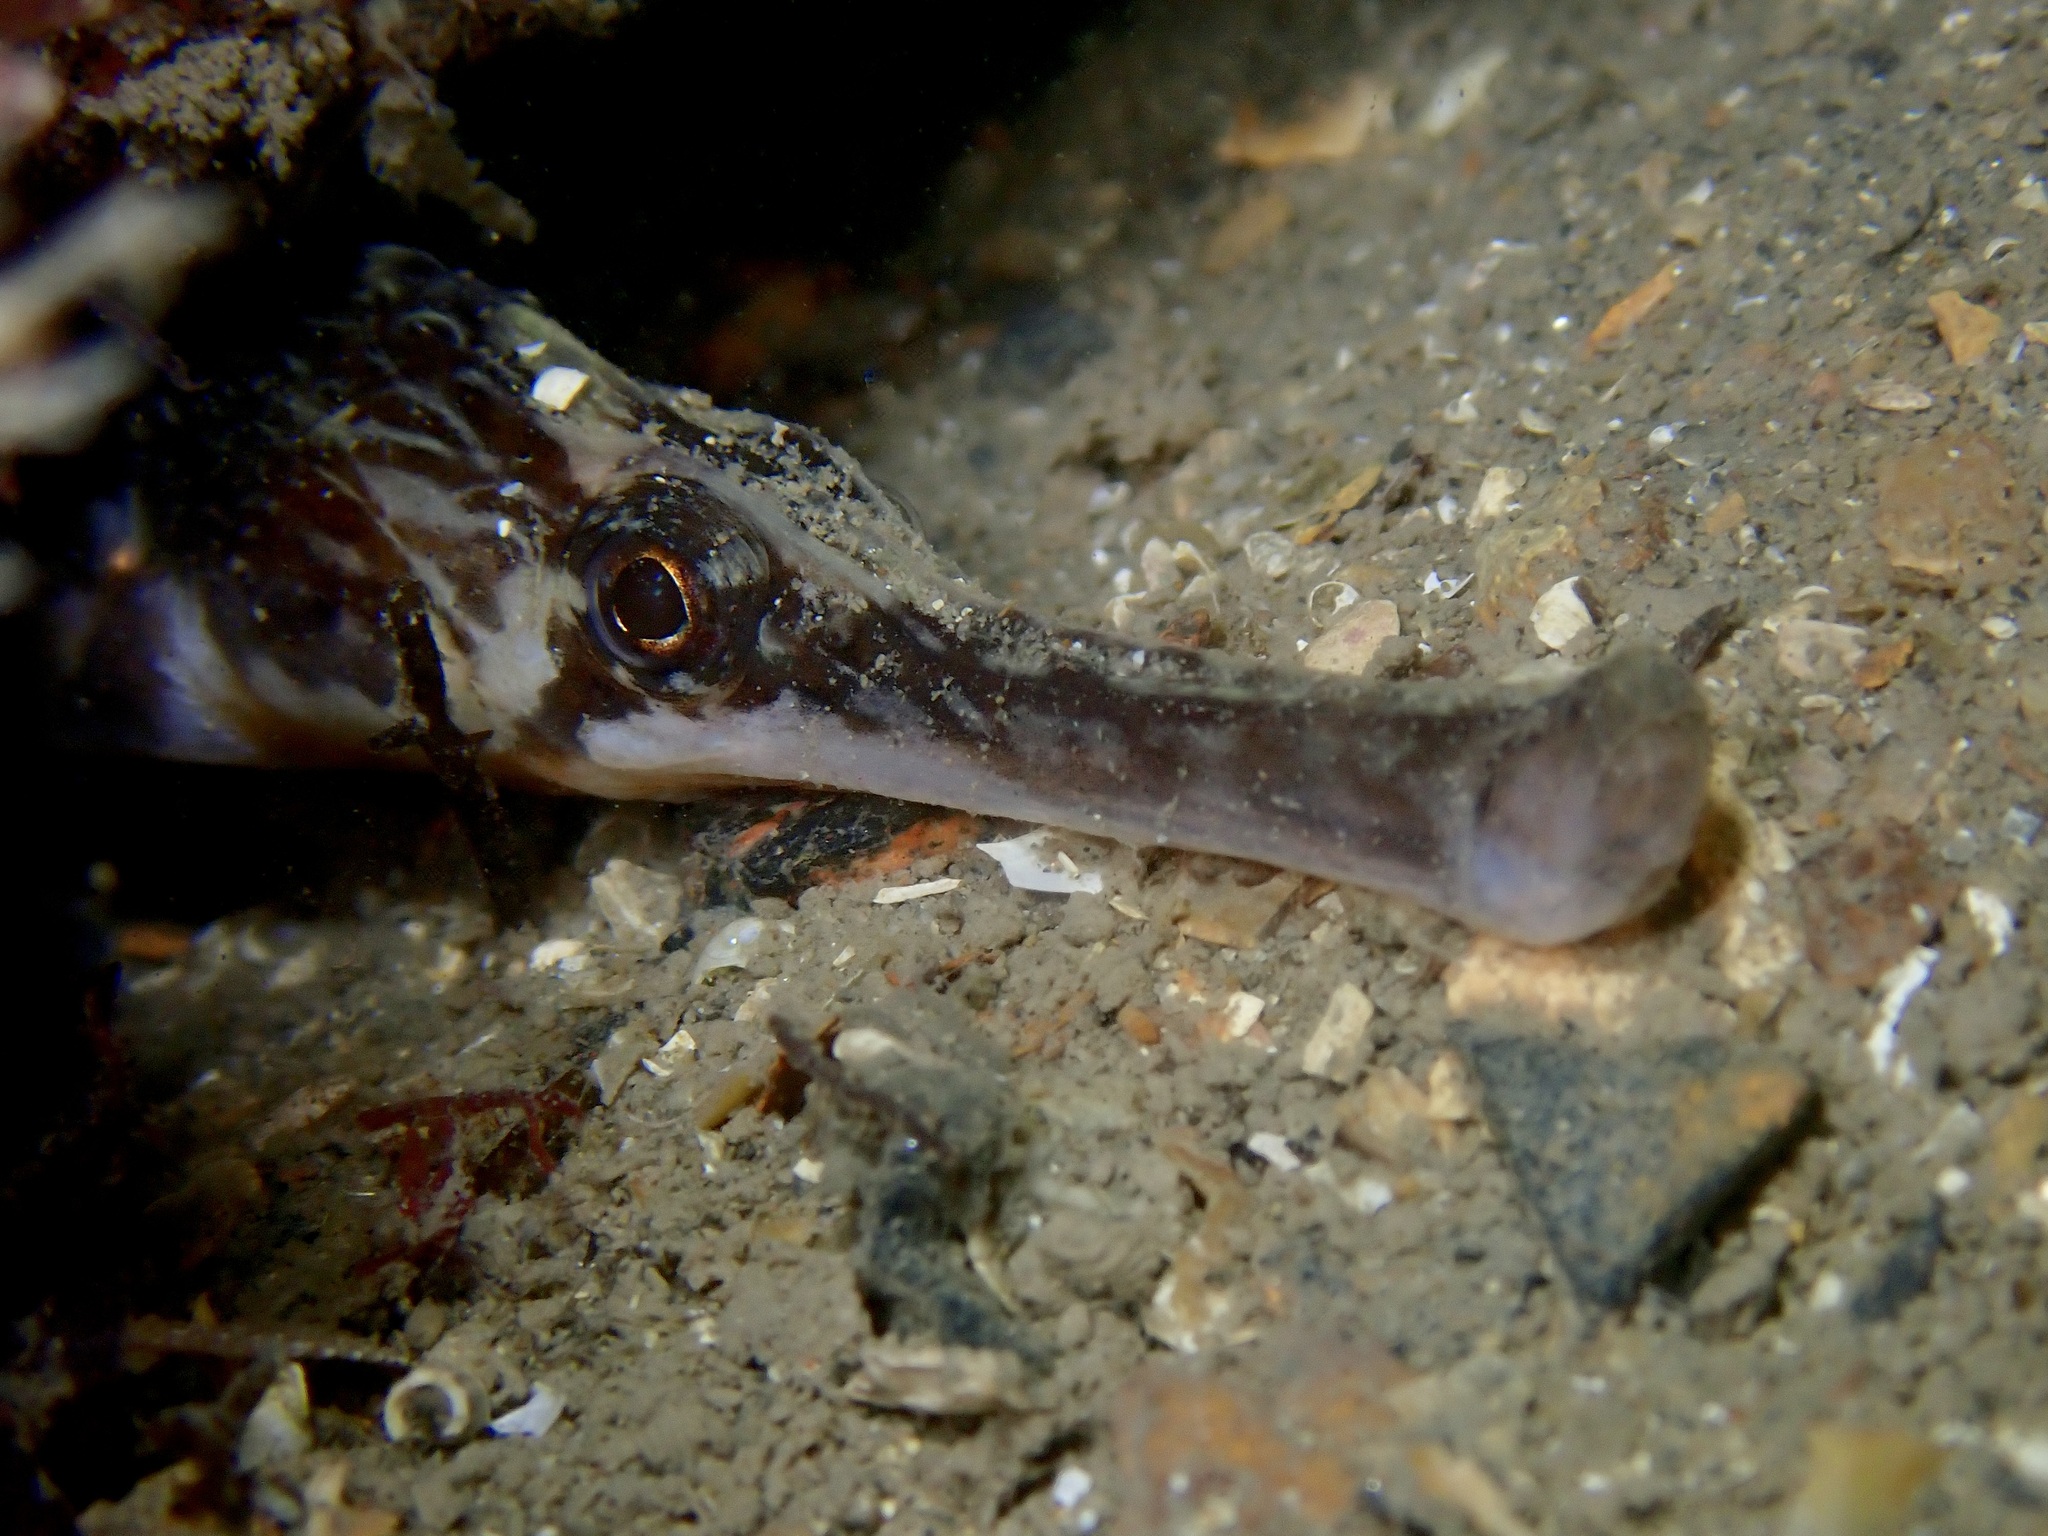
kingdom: Animalia
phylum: Chordata
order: Syngnathiformes
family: Syngnathidae
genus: Syngnathus
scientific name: Syngnathus acus
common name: Greater pipefish
